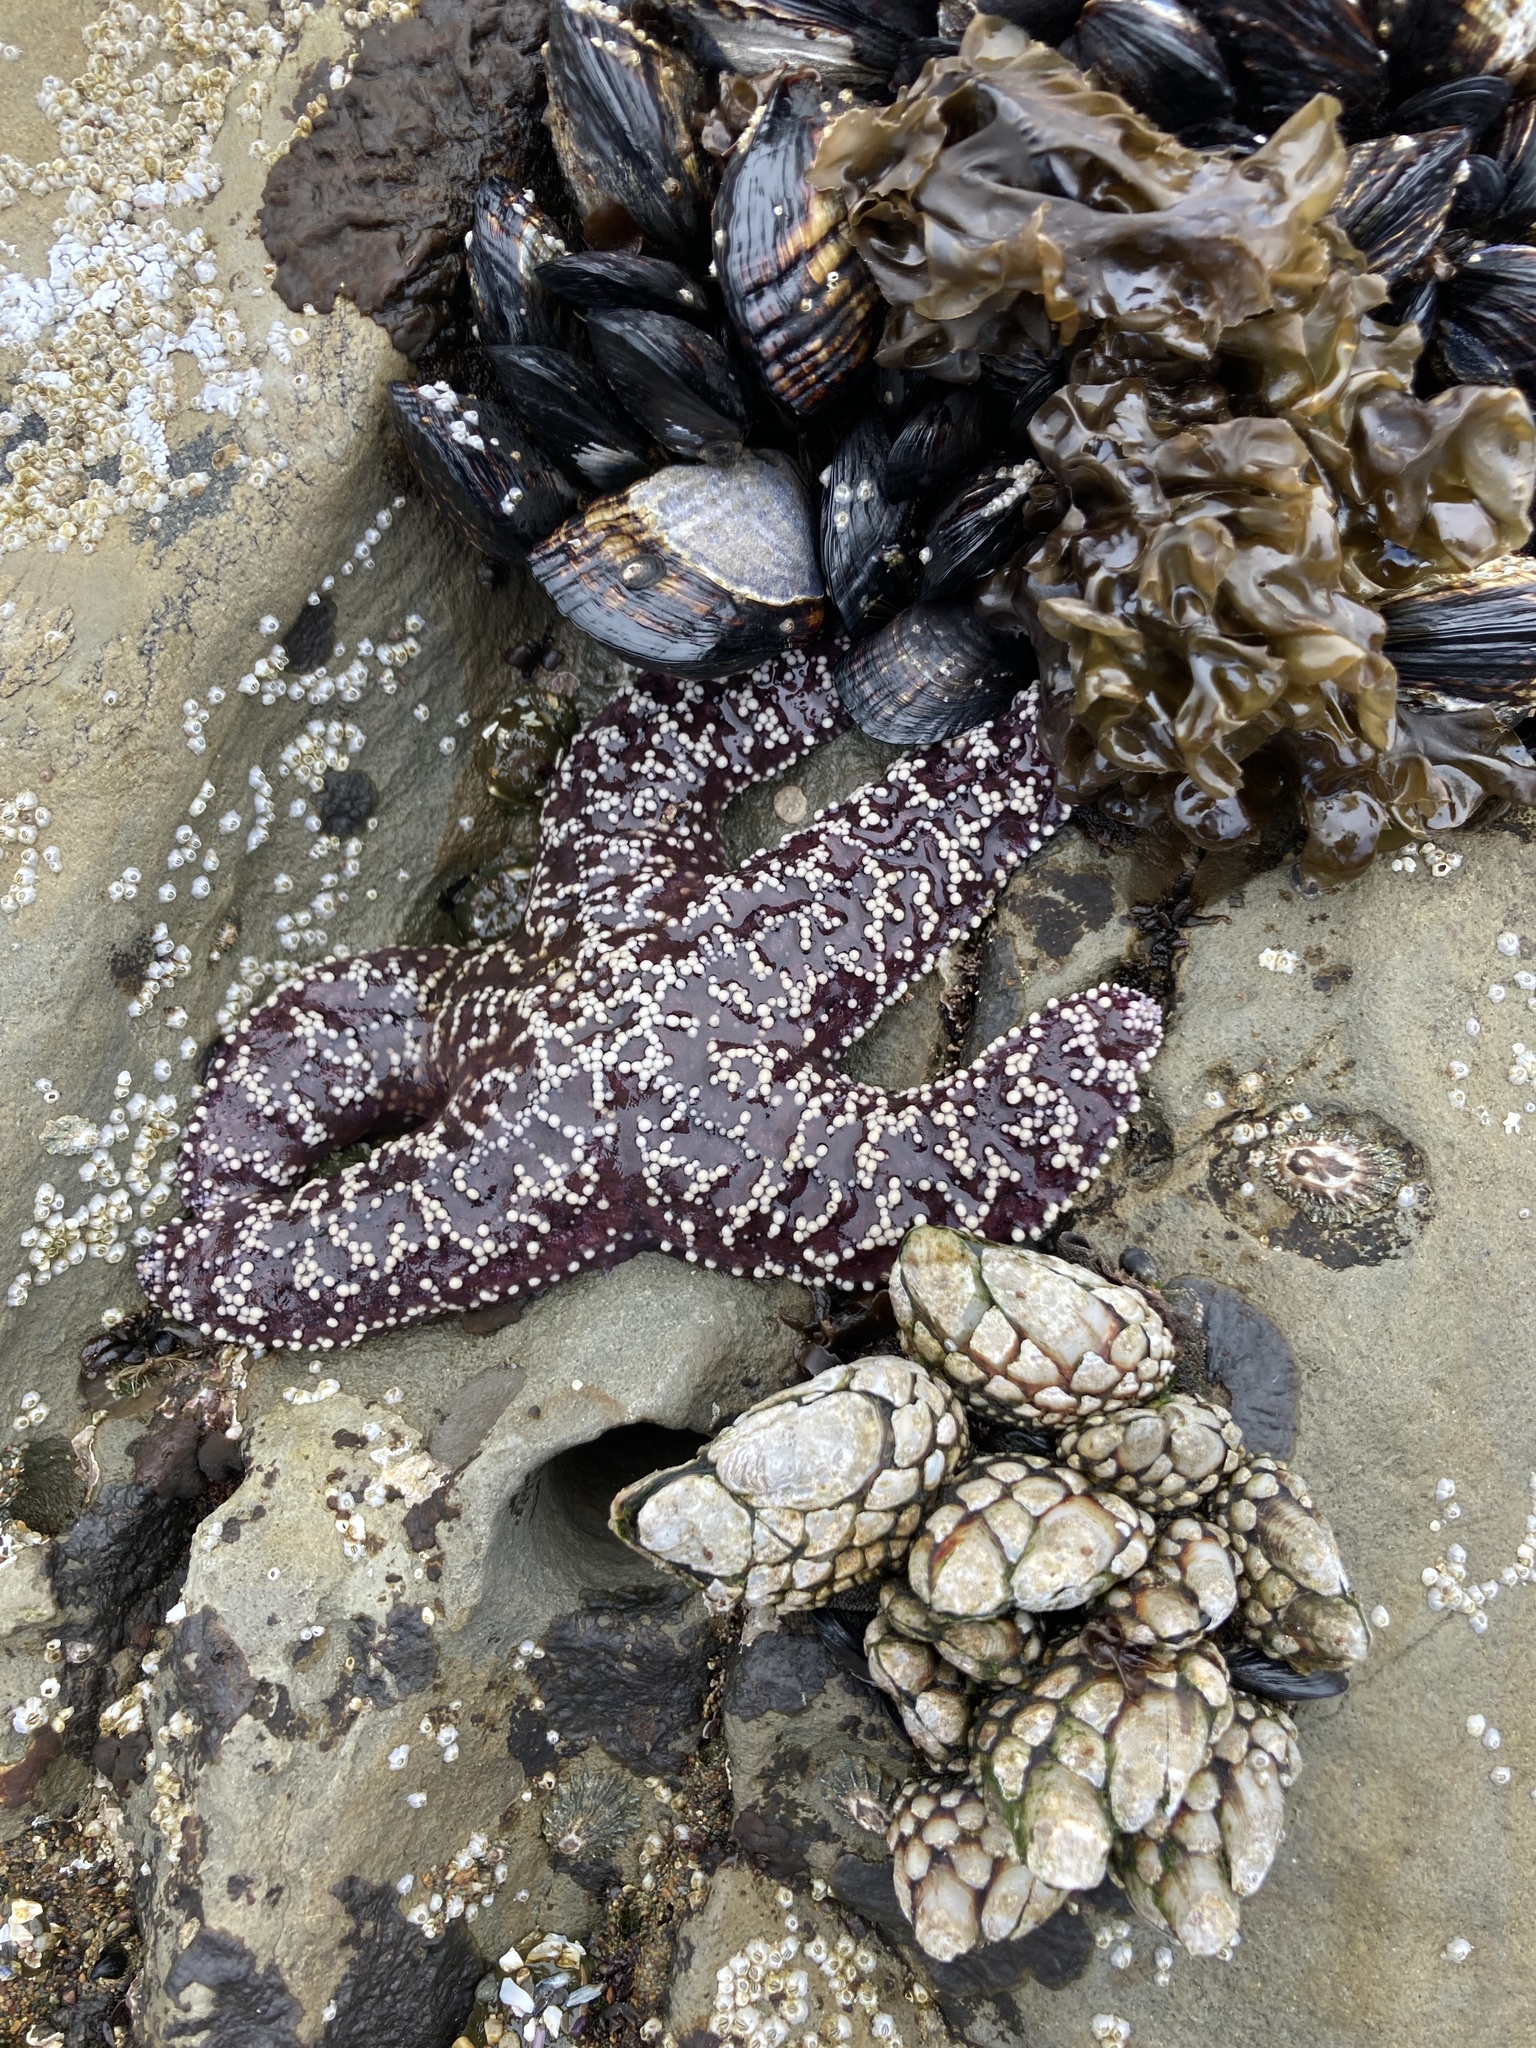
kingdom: Animalia
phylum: Echinodermata
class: Asteroidea
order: Forcipulatida
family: Asteriidae
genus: Pisaster
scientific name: Pisaster ochraceus
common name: Ochre stars
